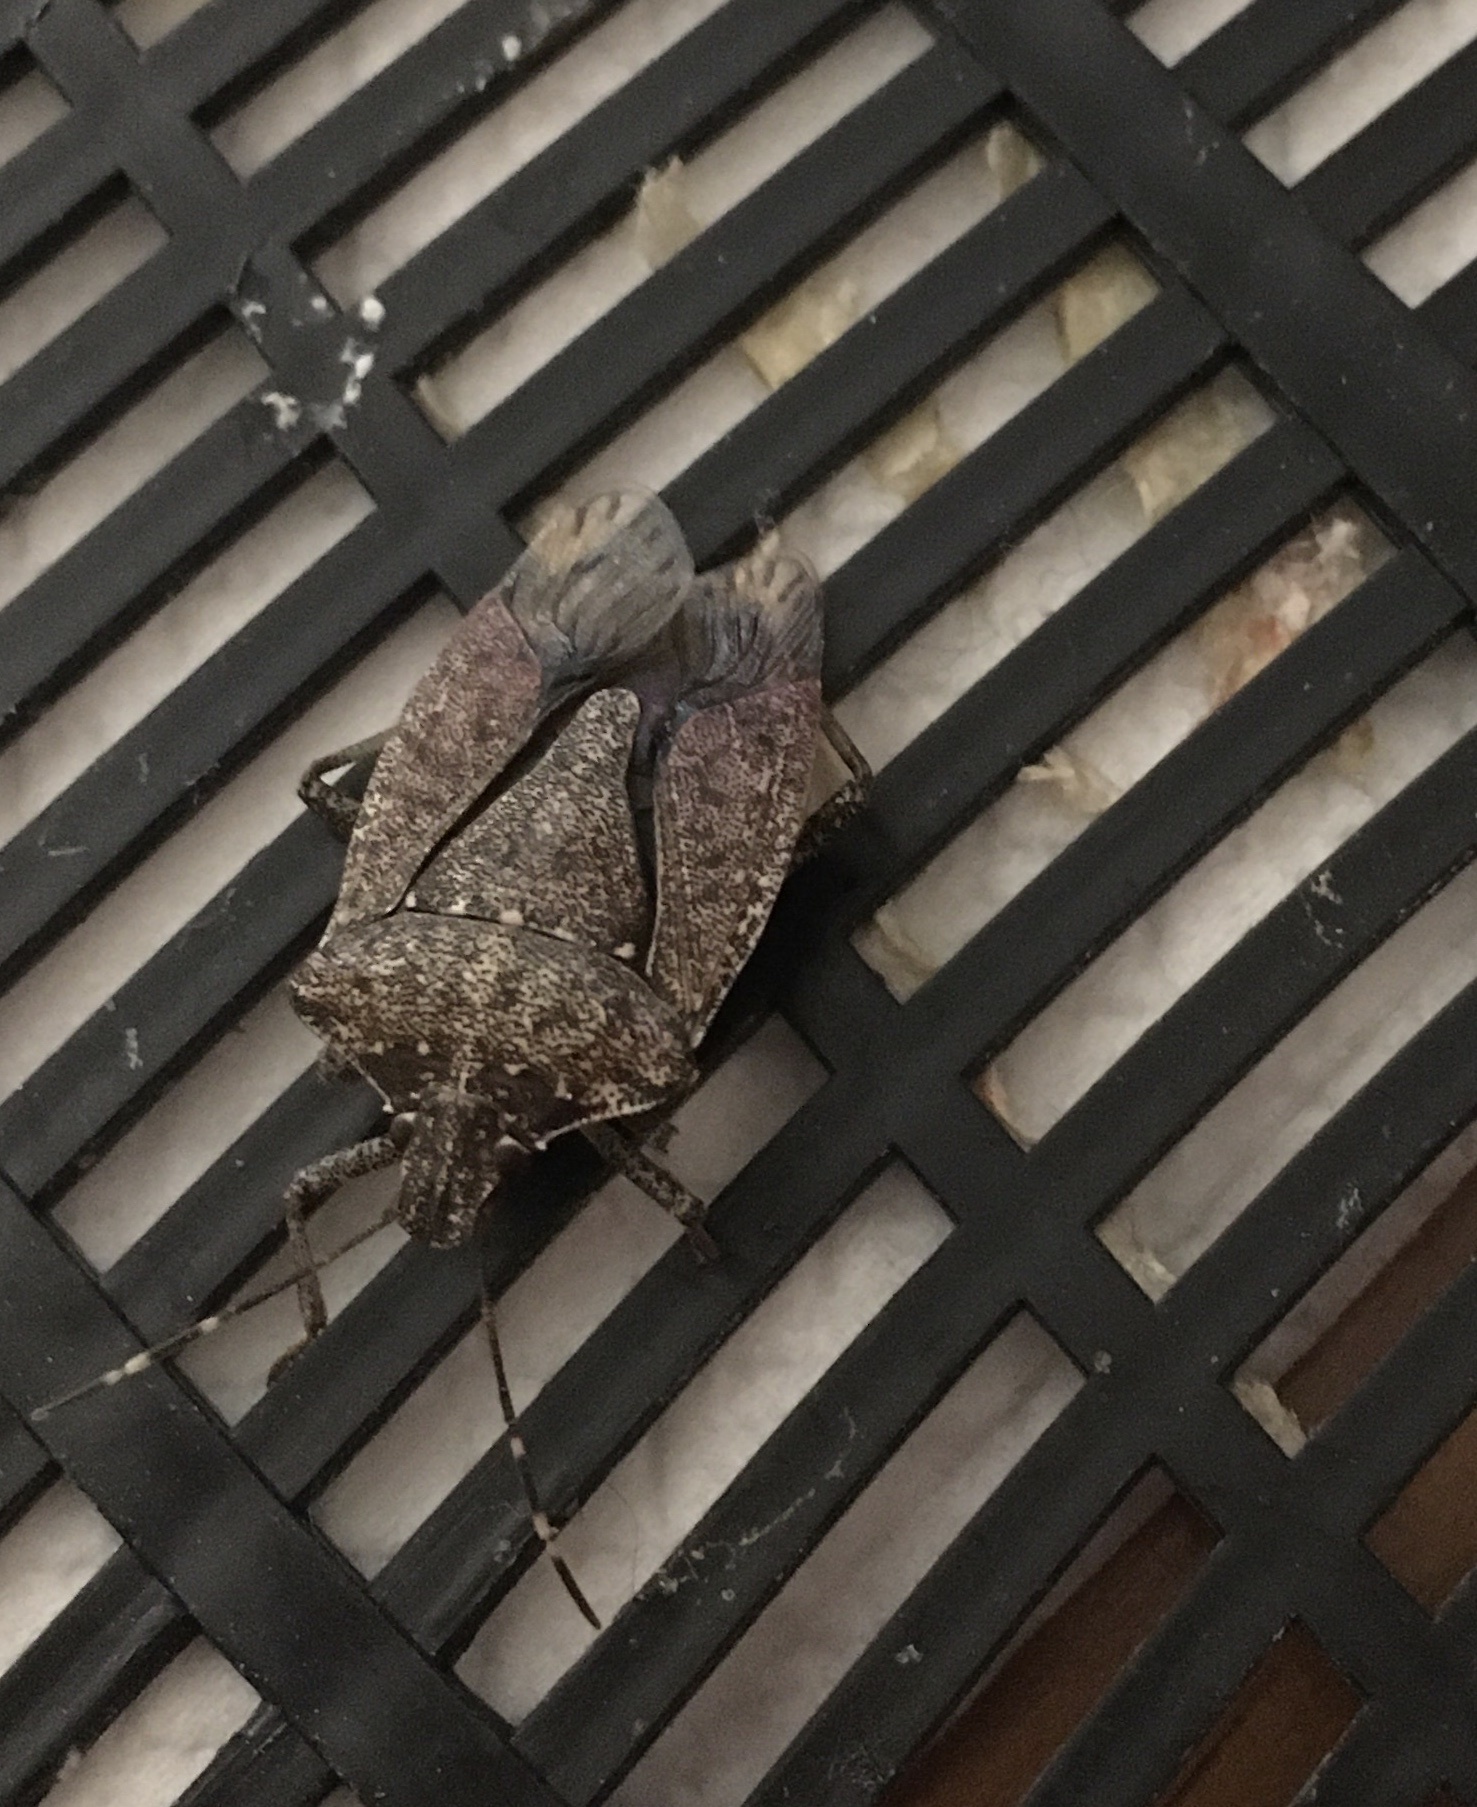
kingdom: Animalia
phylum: Arthropoda
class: Insecta
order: Hemiptera
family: Pentatomidae
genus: Halyomorpha
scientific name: Halyomorpha halys
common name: Brown marmorated stink bug
